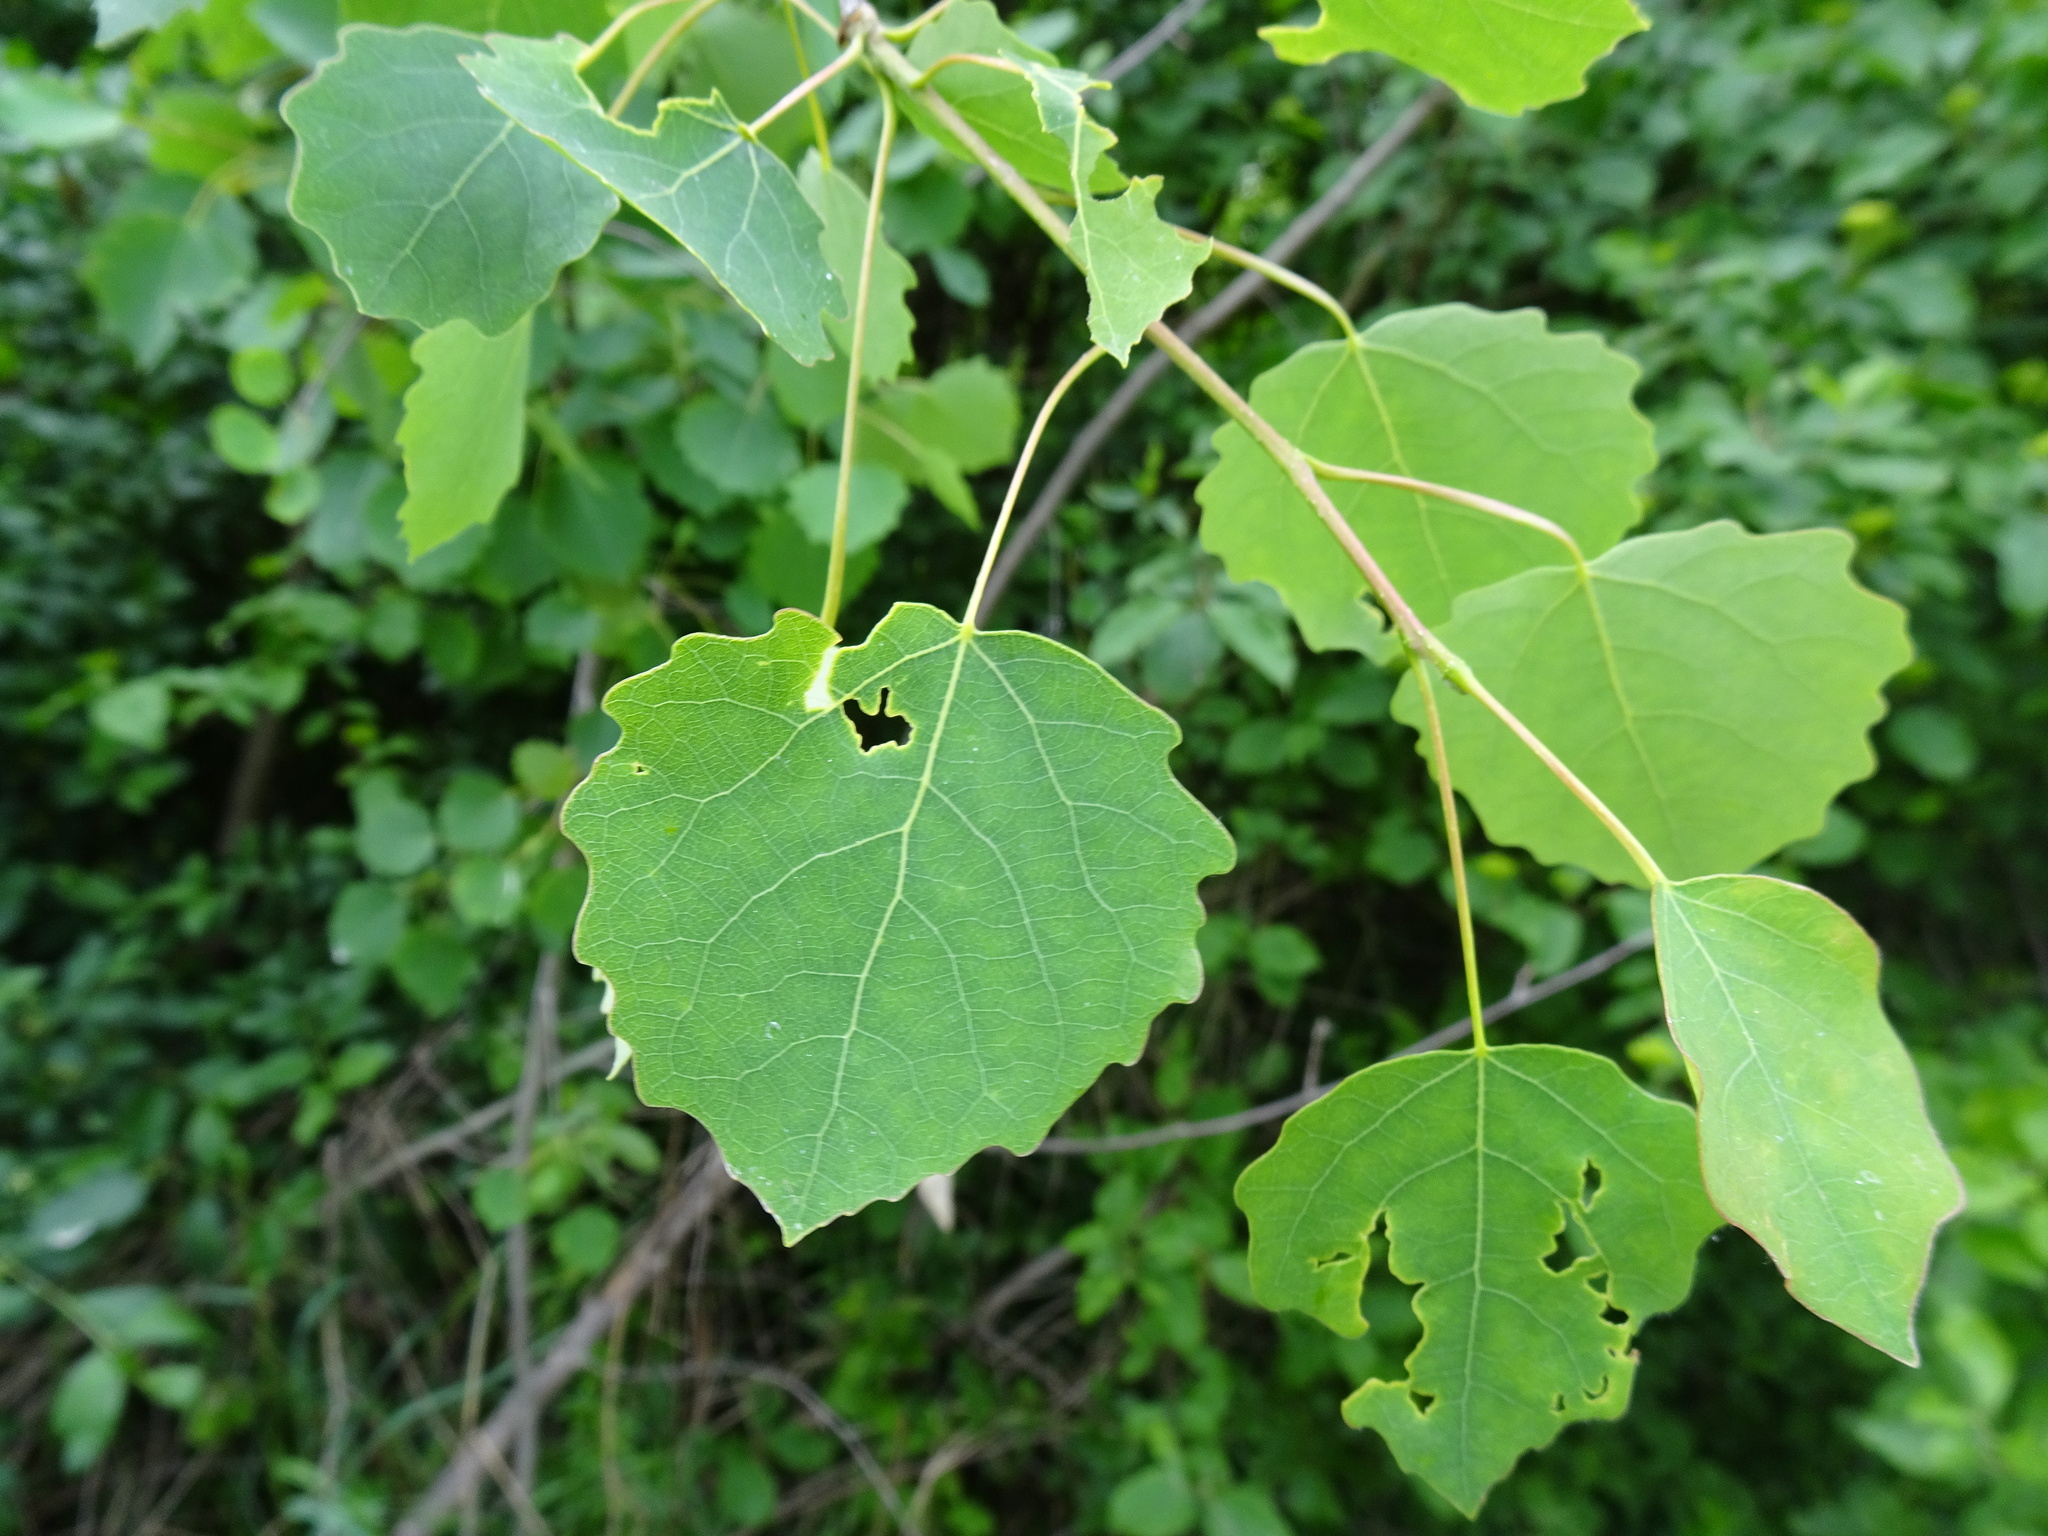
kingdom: Plantae
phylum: Tracheophyta
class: Magnoliopsida
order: Malpighiales
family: Salicaceae
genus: Populus
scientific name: Populus tremula
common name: European aspen
